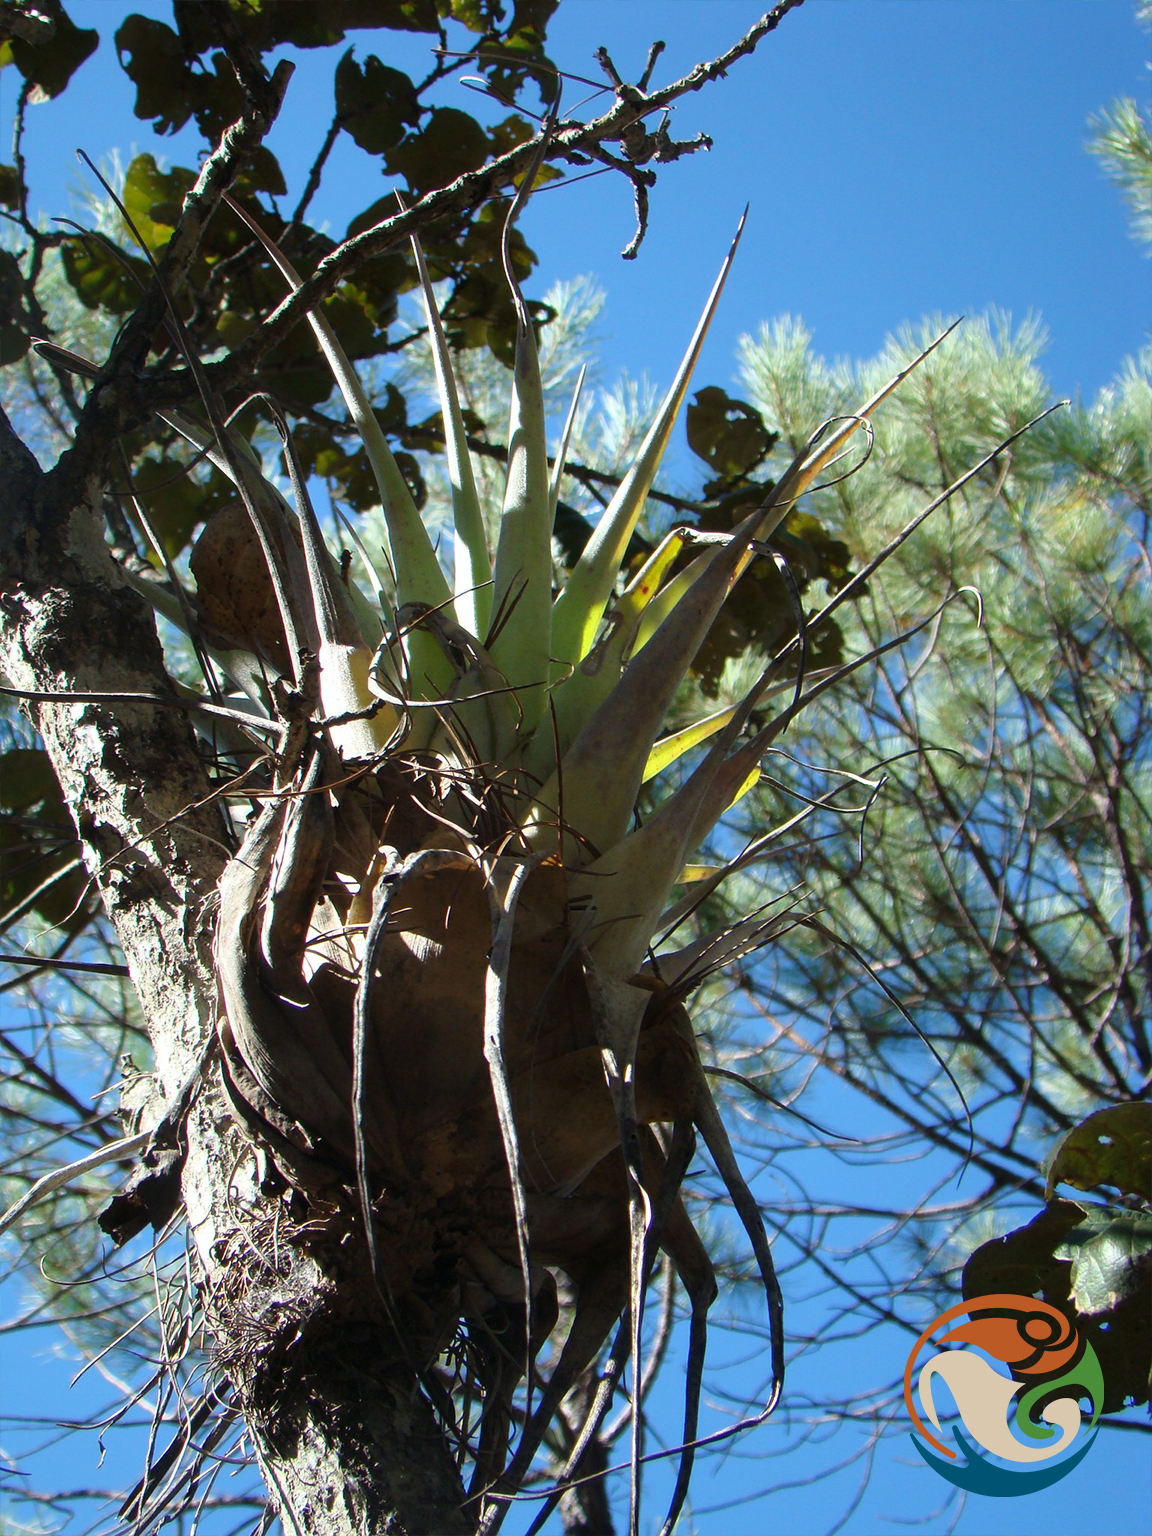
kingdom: Plantae
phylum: Tracheophyta
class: Liliopsida
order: Poales
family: Bromeliaceae
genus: Tillandsia
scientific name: Tillandsia prodigiosa
